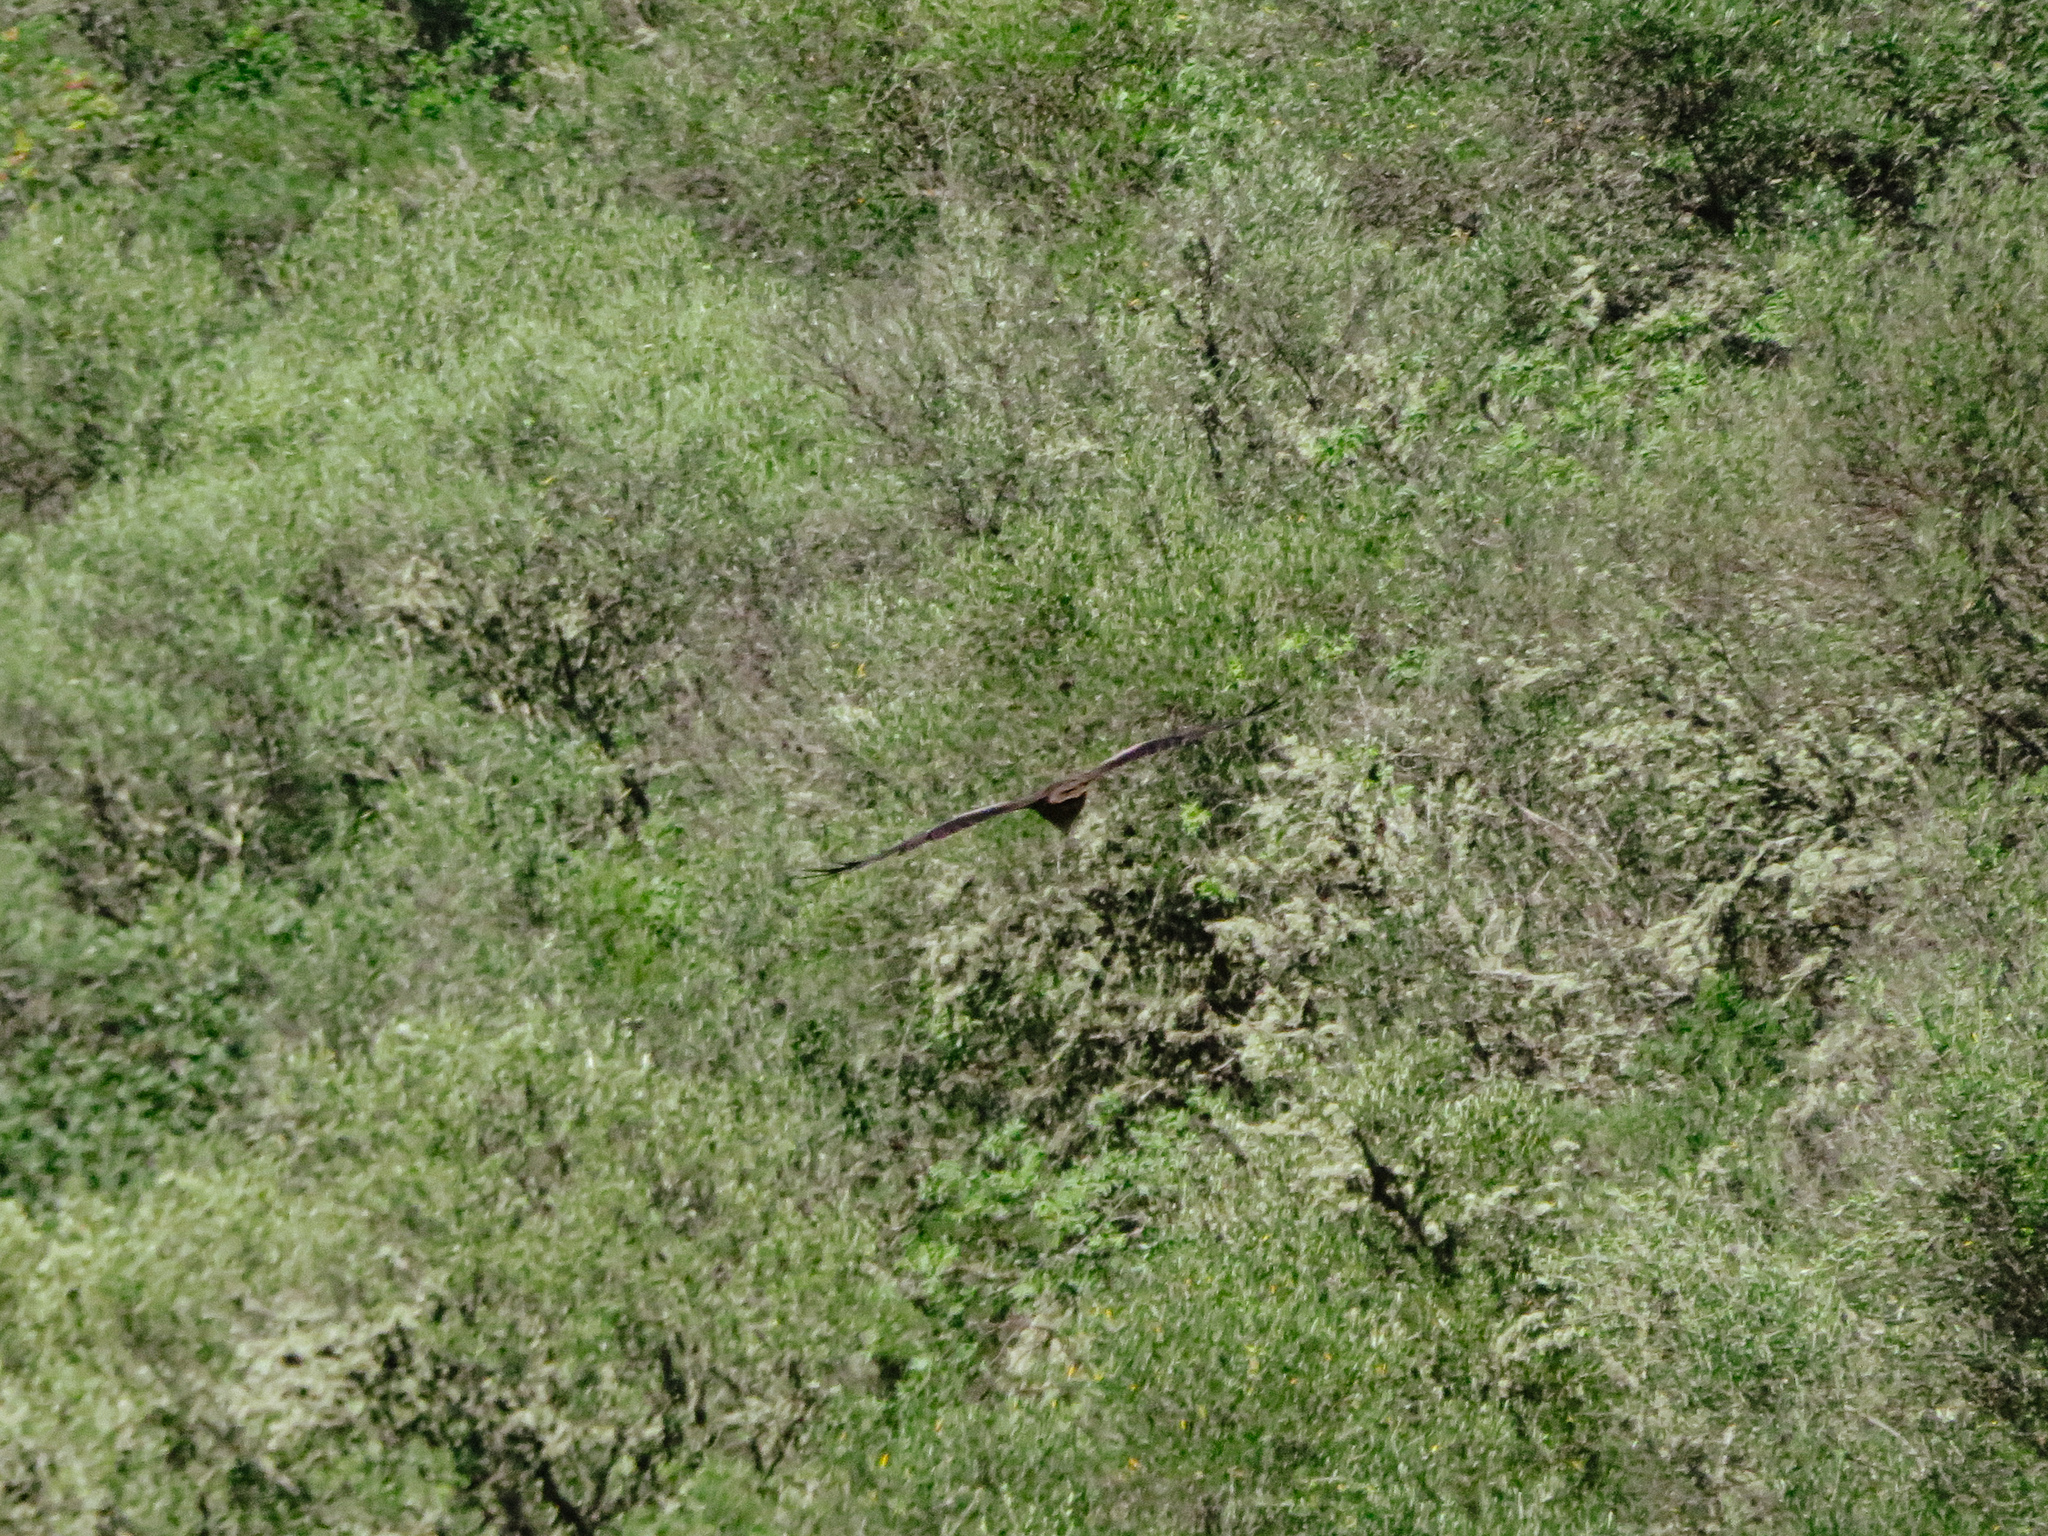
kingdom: Animalia
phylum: Chordata
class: Aves
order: Accipitriformes
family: Accipitridae
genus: Milvus
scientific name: Milvus migrans
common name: Black kite
